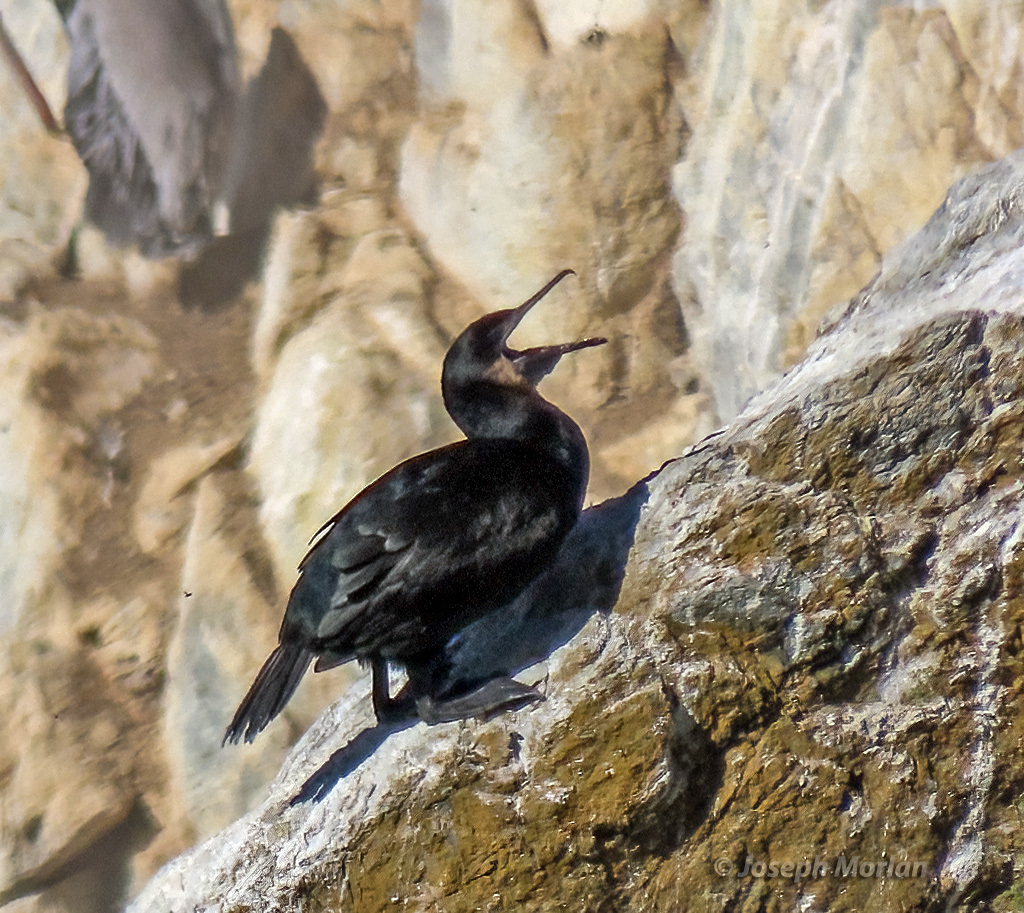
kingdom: Animalia
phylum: Chordata
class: Aves
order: Suliformes
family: Phalacrocoracidae
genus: Urile
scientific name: Urile penicillatus
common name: Brandt's cormorant
